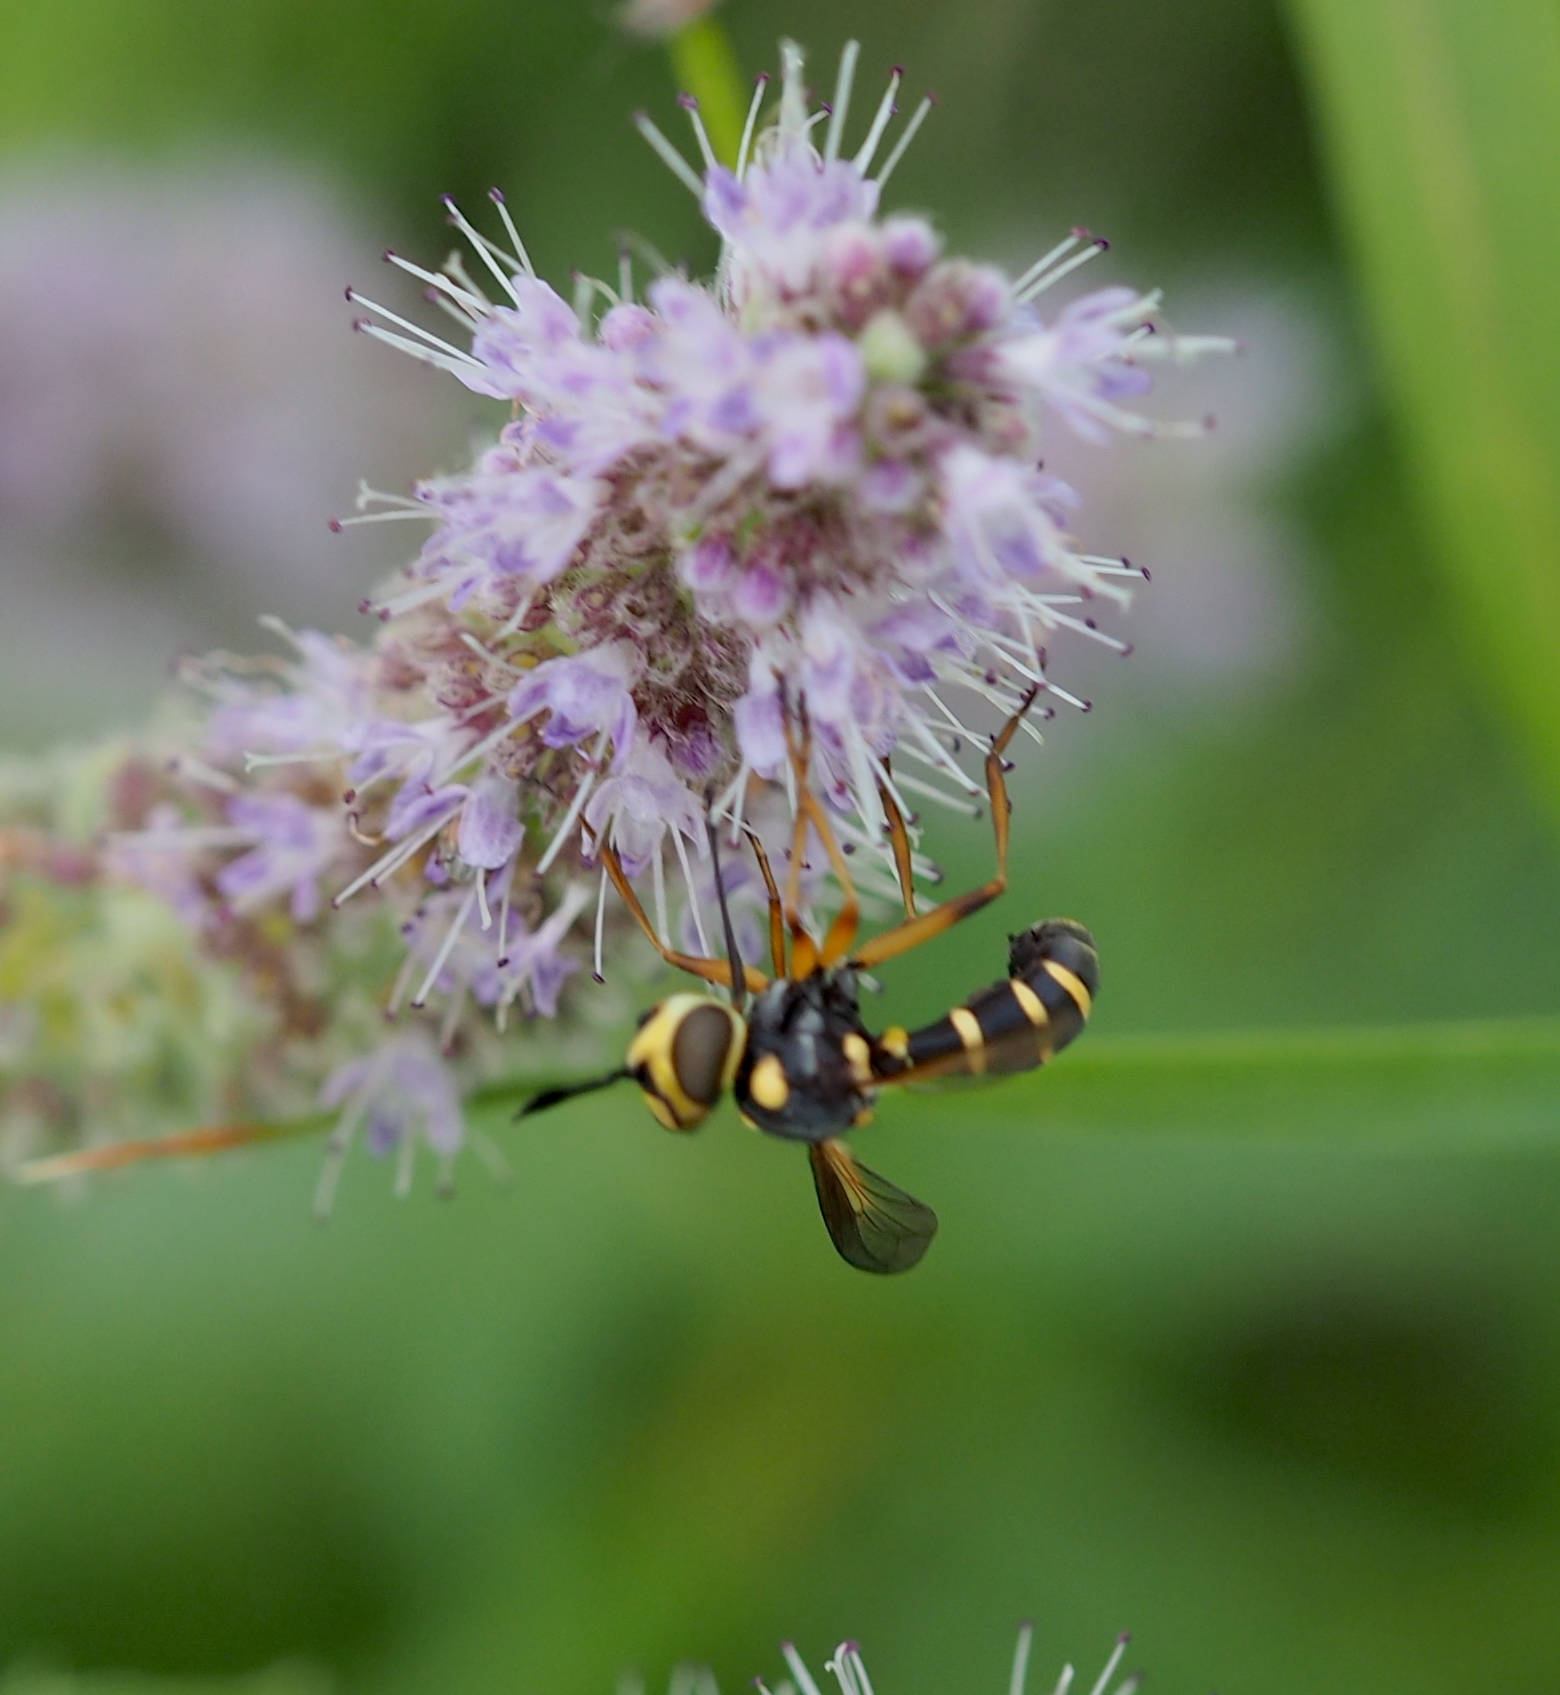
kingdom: Animalia
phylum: Arthropoda
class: Insecta
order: Diptera
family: Conopidae
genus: Conops
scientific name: Conops scutellatus
